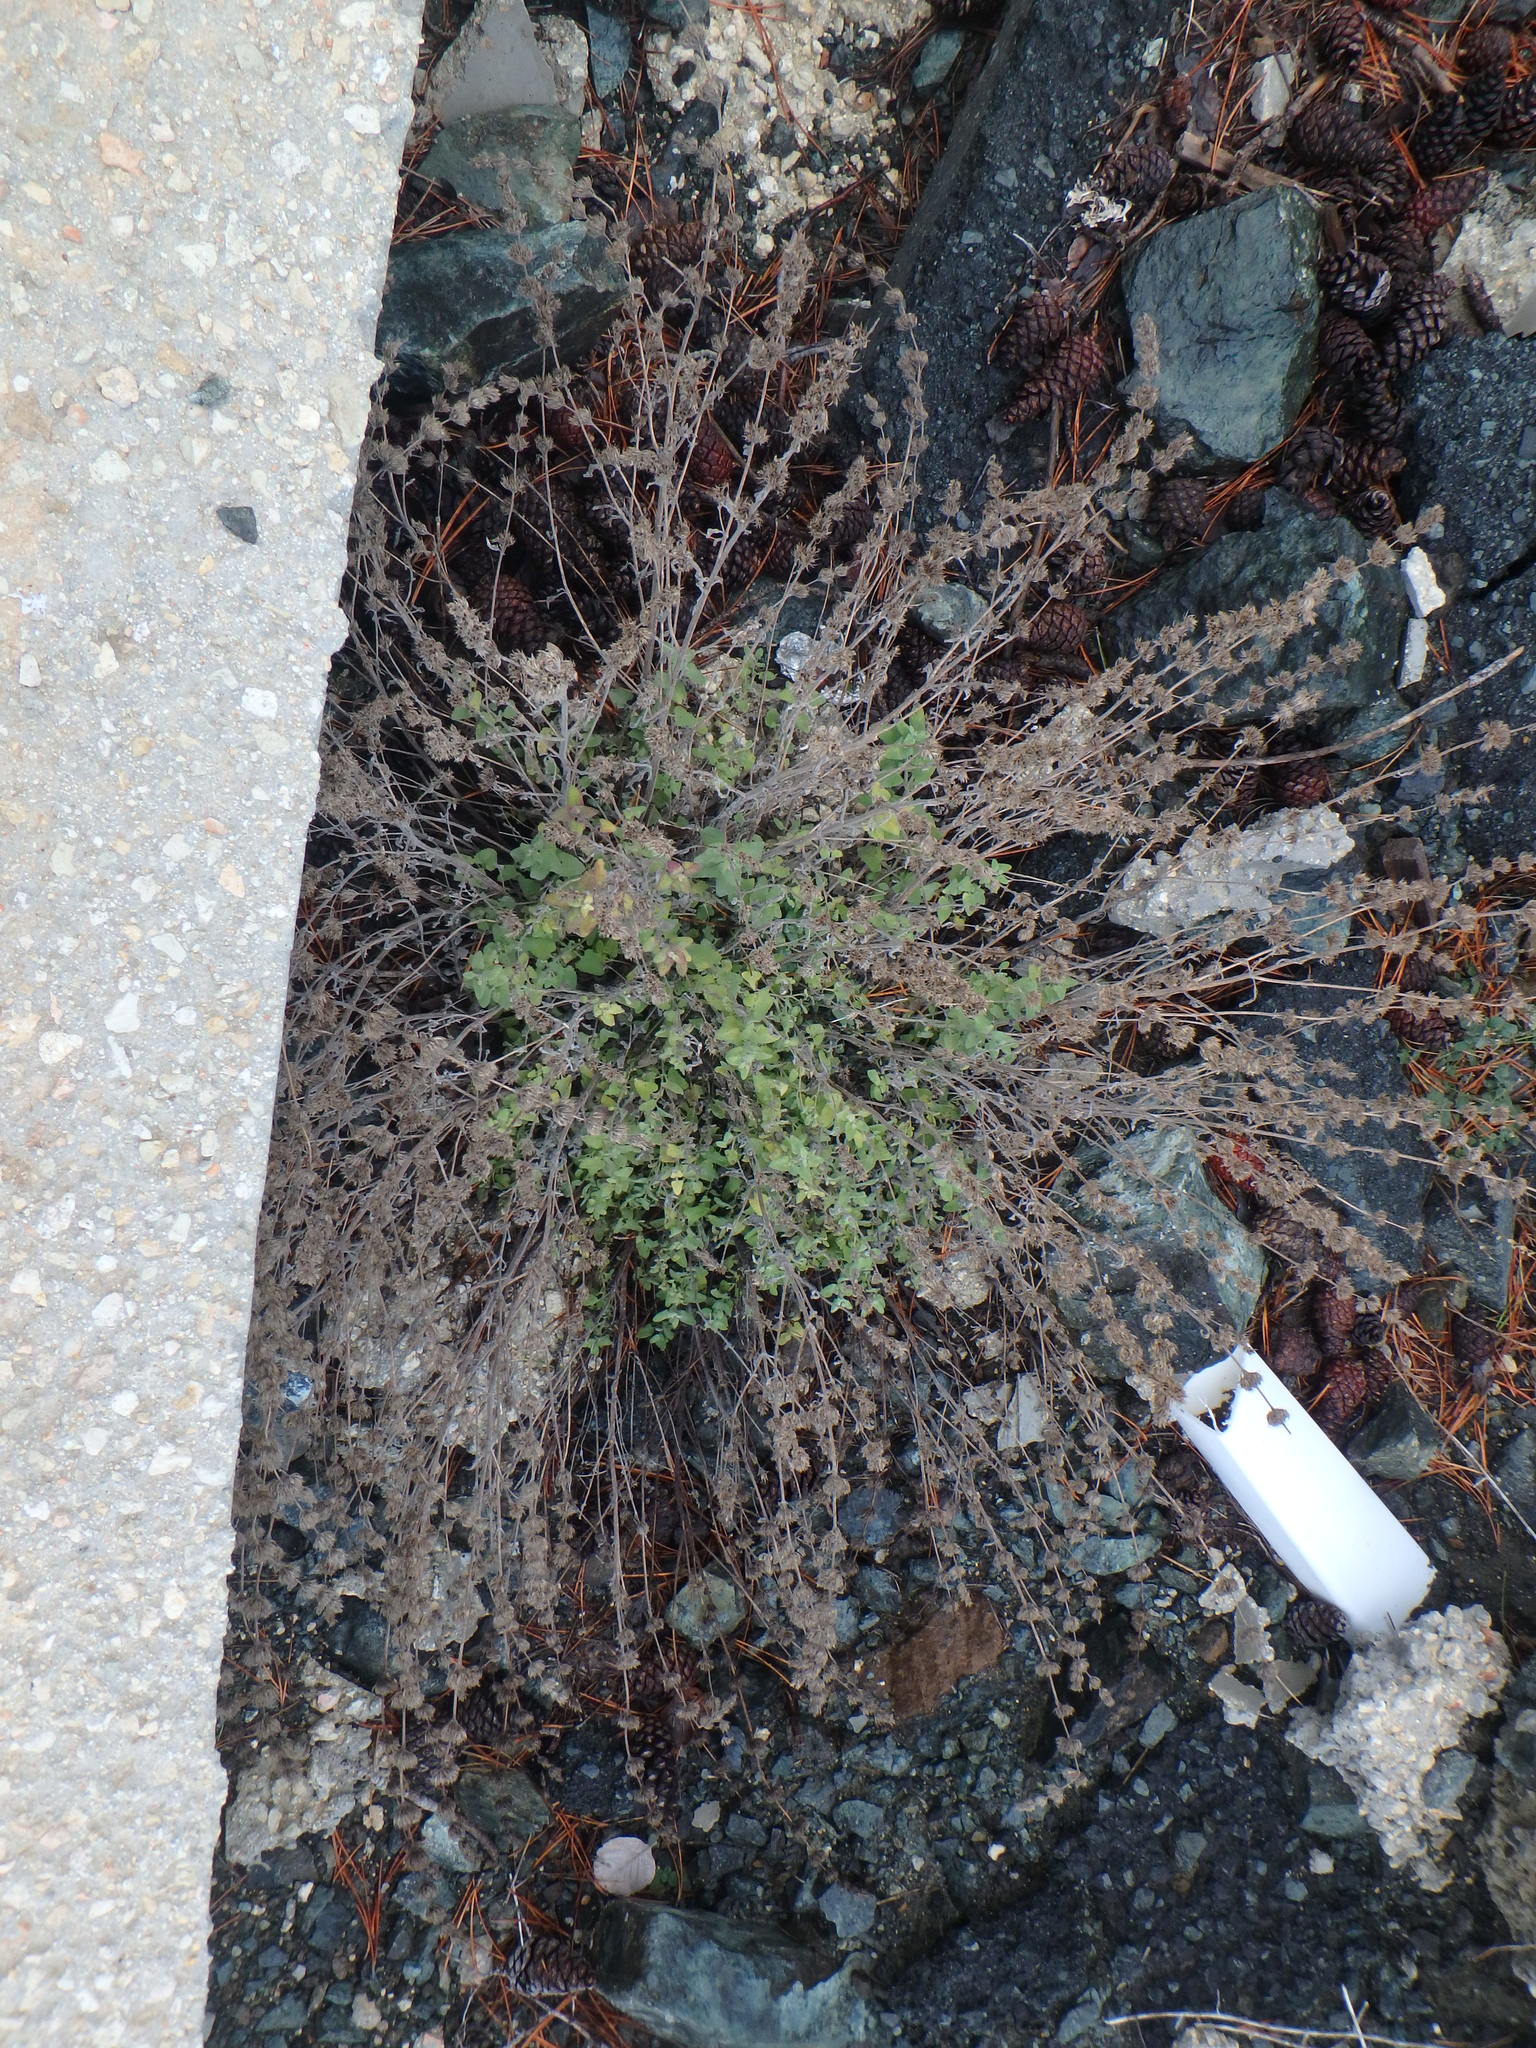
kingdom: Plantae
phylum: Tracheophyta
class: Magnoliopsida
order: Lamiales
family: Lamiaceae
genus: Nepeta
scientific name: Nepeta italica
